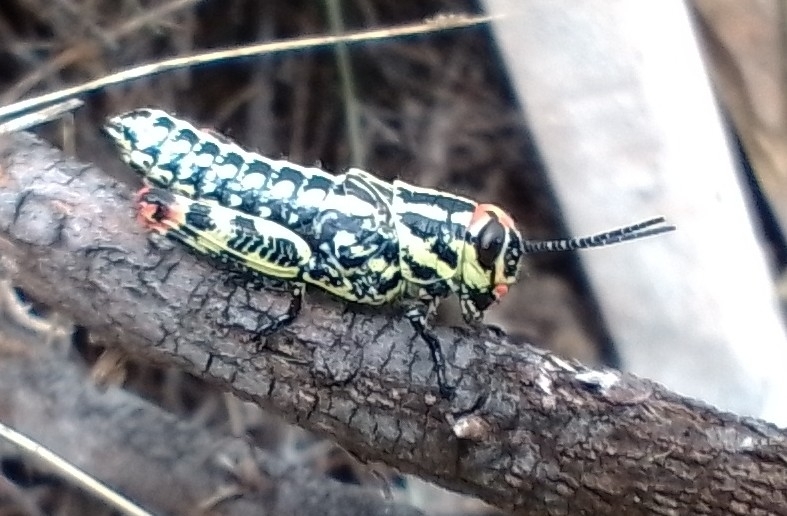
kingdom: Animalia
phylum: Arthropoda
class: Insecta
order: Orthoptera
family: Romaleidae
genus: Diponthus
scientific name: Diponthus puelchus
